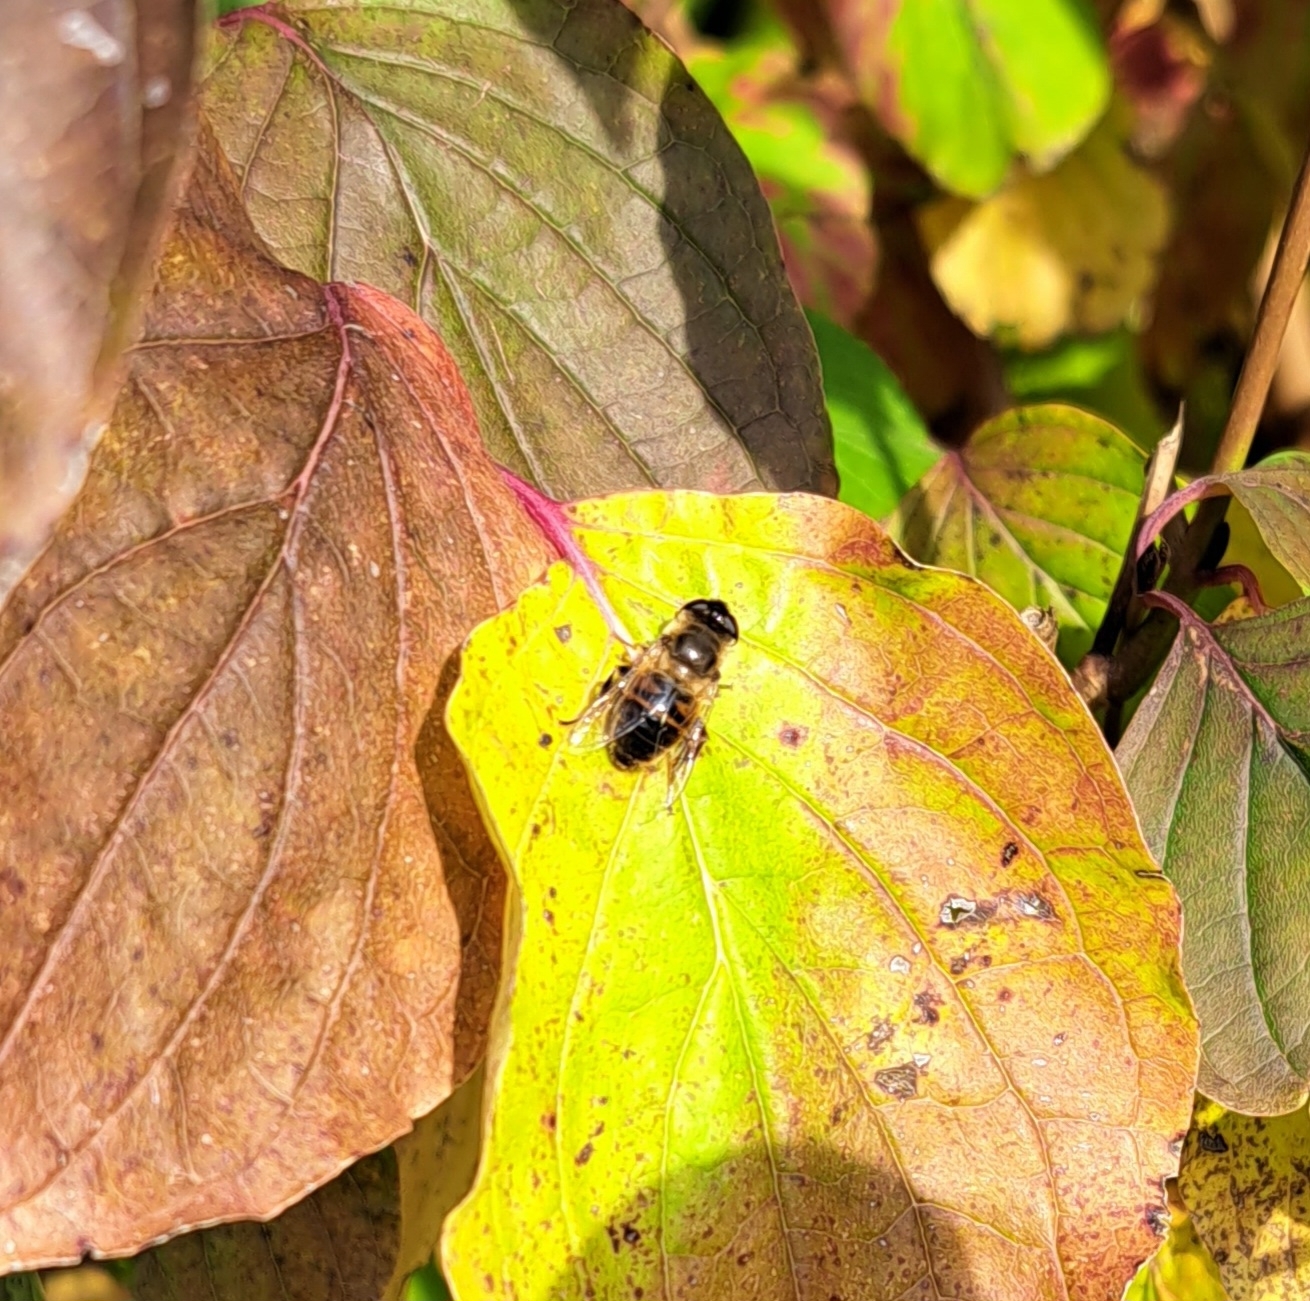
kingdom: Animalia
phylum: Arthropoda
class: Insecta
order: Diptera
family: Syrphidae
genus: Eristalis
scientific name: Eristalis tenax
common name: Drone fly
